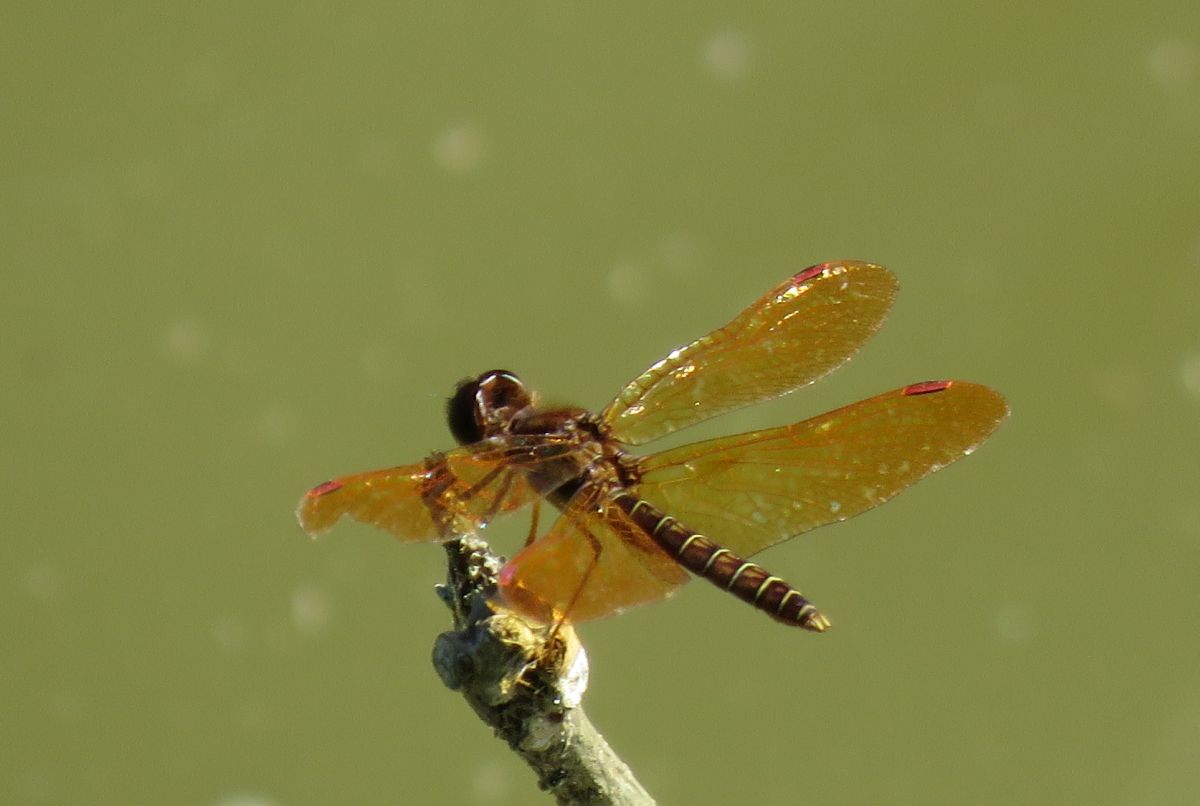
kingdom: Animalia
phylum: Arthropoda
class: Insecta
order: Odonata
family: Libellulidae
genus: Perithemis
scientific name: Perithemis tenera
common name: Eastern amberwing
